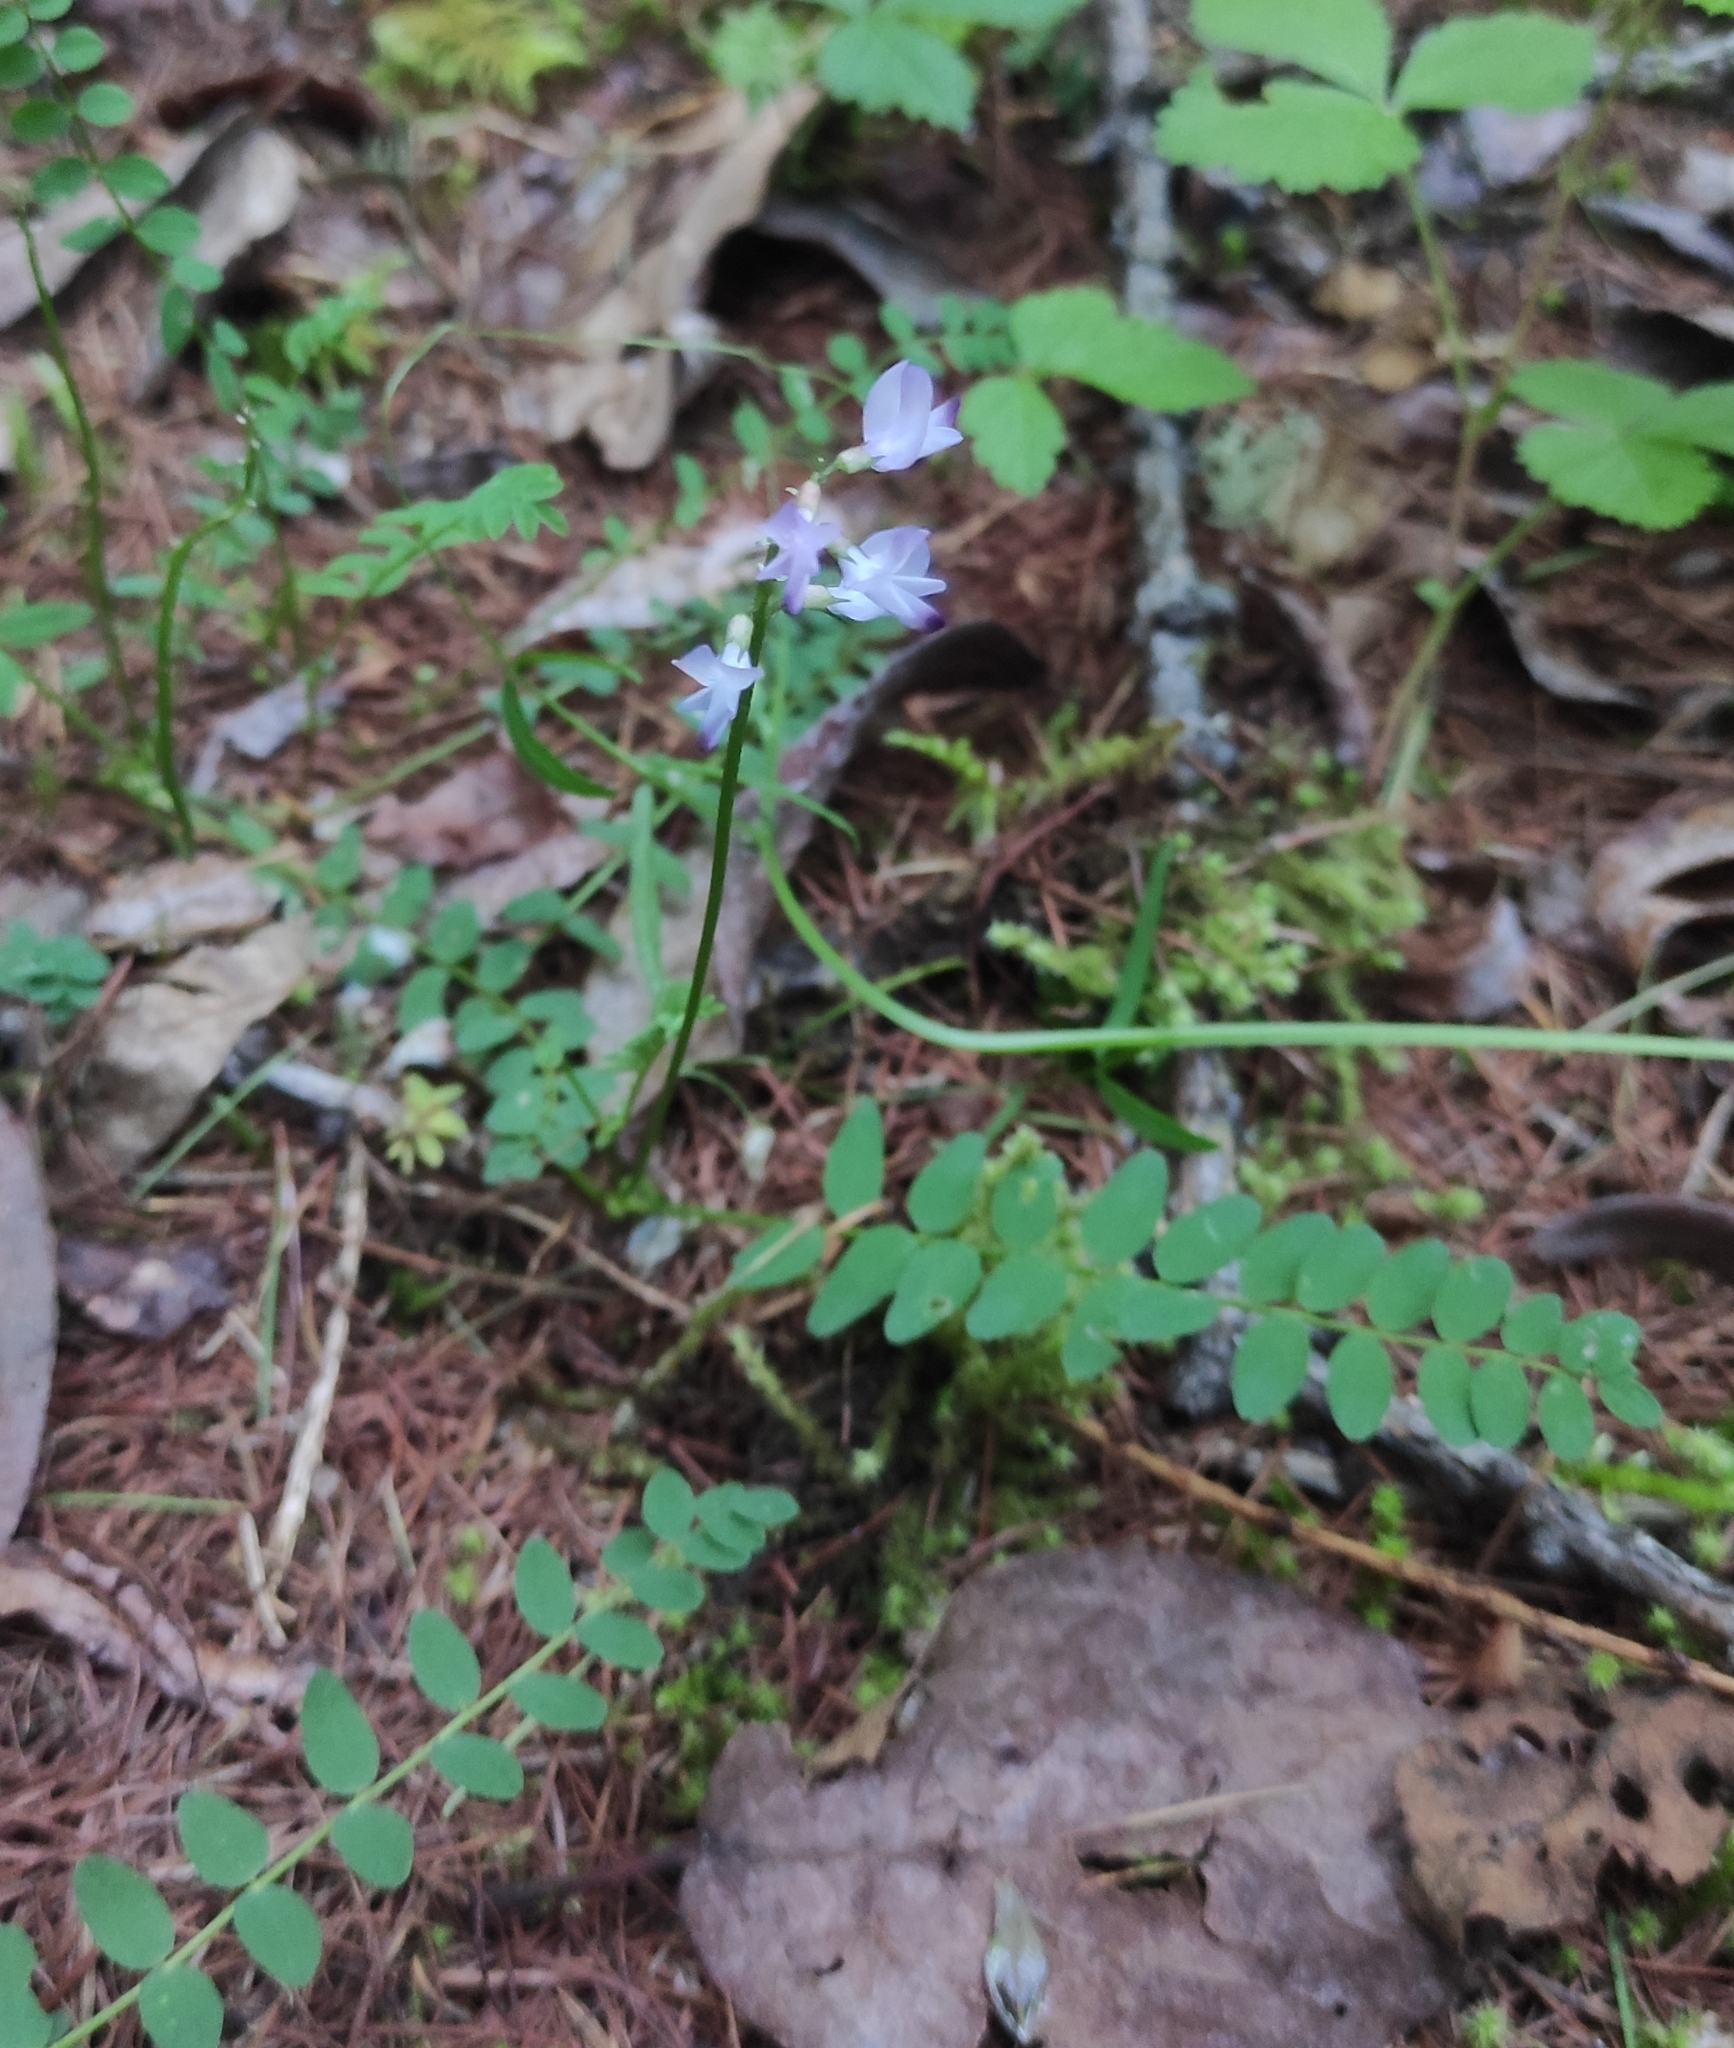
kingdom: Plantae
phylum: Tracheophyta
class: Magnoliopsida
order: Fabales
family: Fabaceae
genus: Astragalus
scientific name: Astragalus alpinus
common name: Alpine milk-vetch
